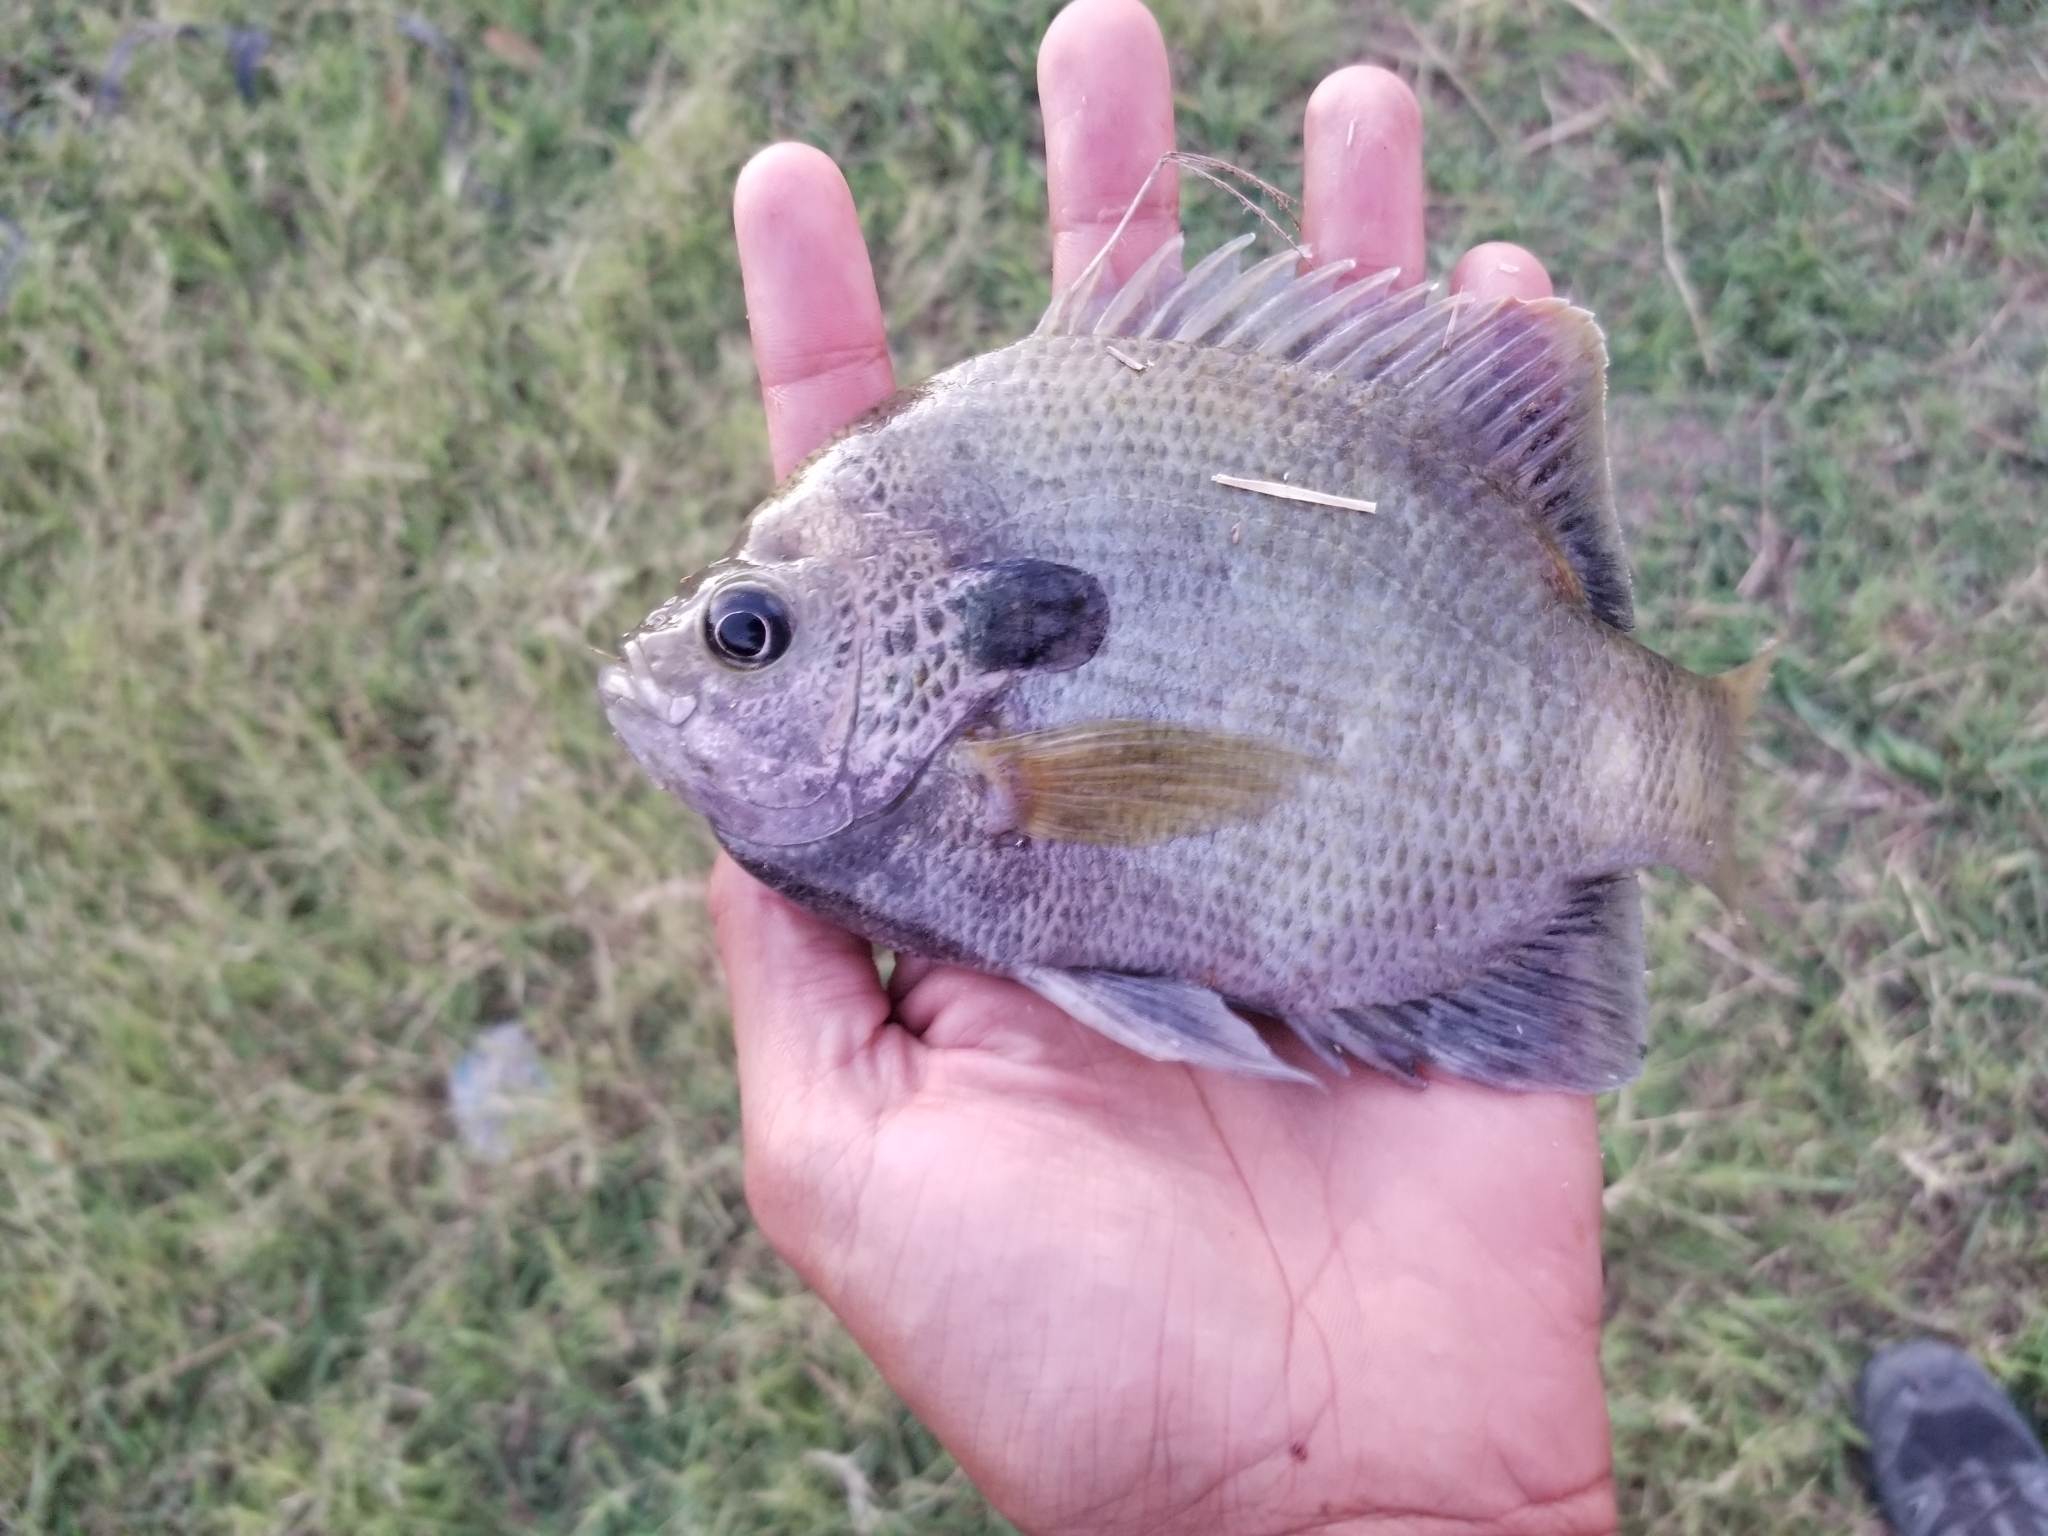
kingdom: Animalia
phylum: Chordata
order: Perciformes
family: Centrarchidae
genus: Lepomis
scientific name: Lepomis macrochirus
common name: Bluegill
